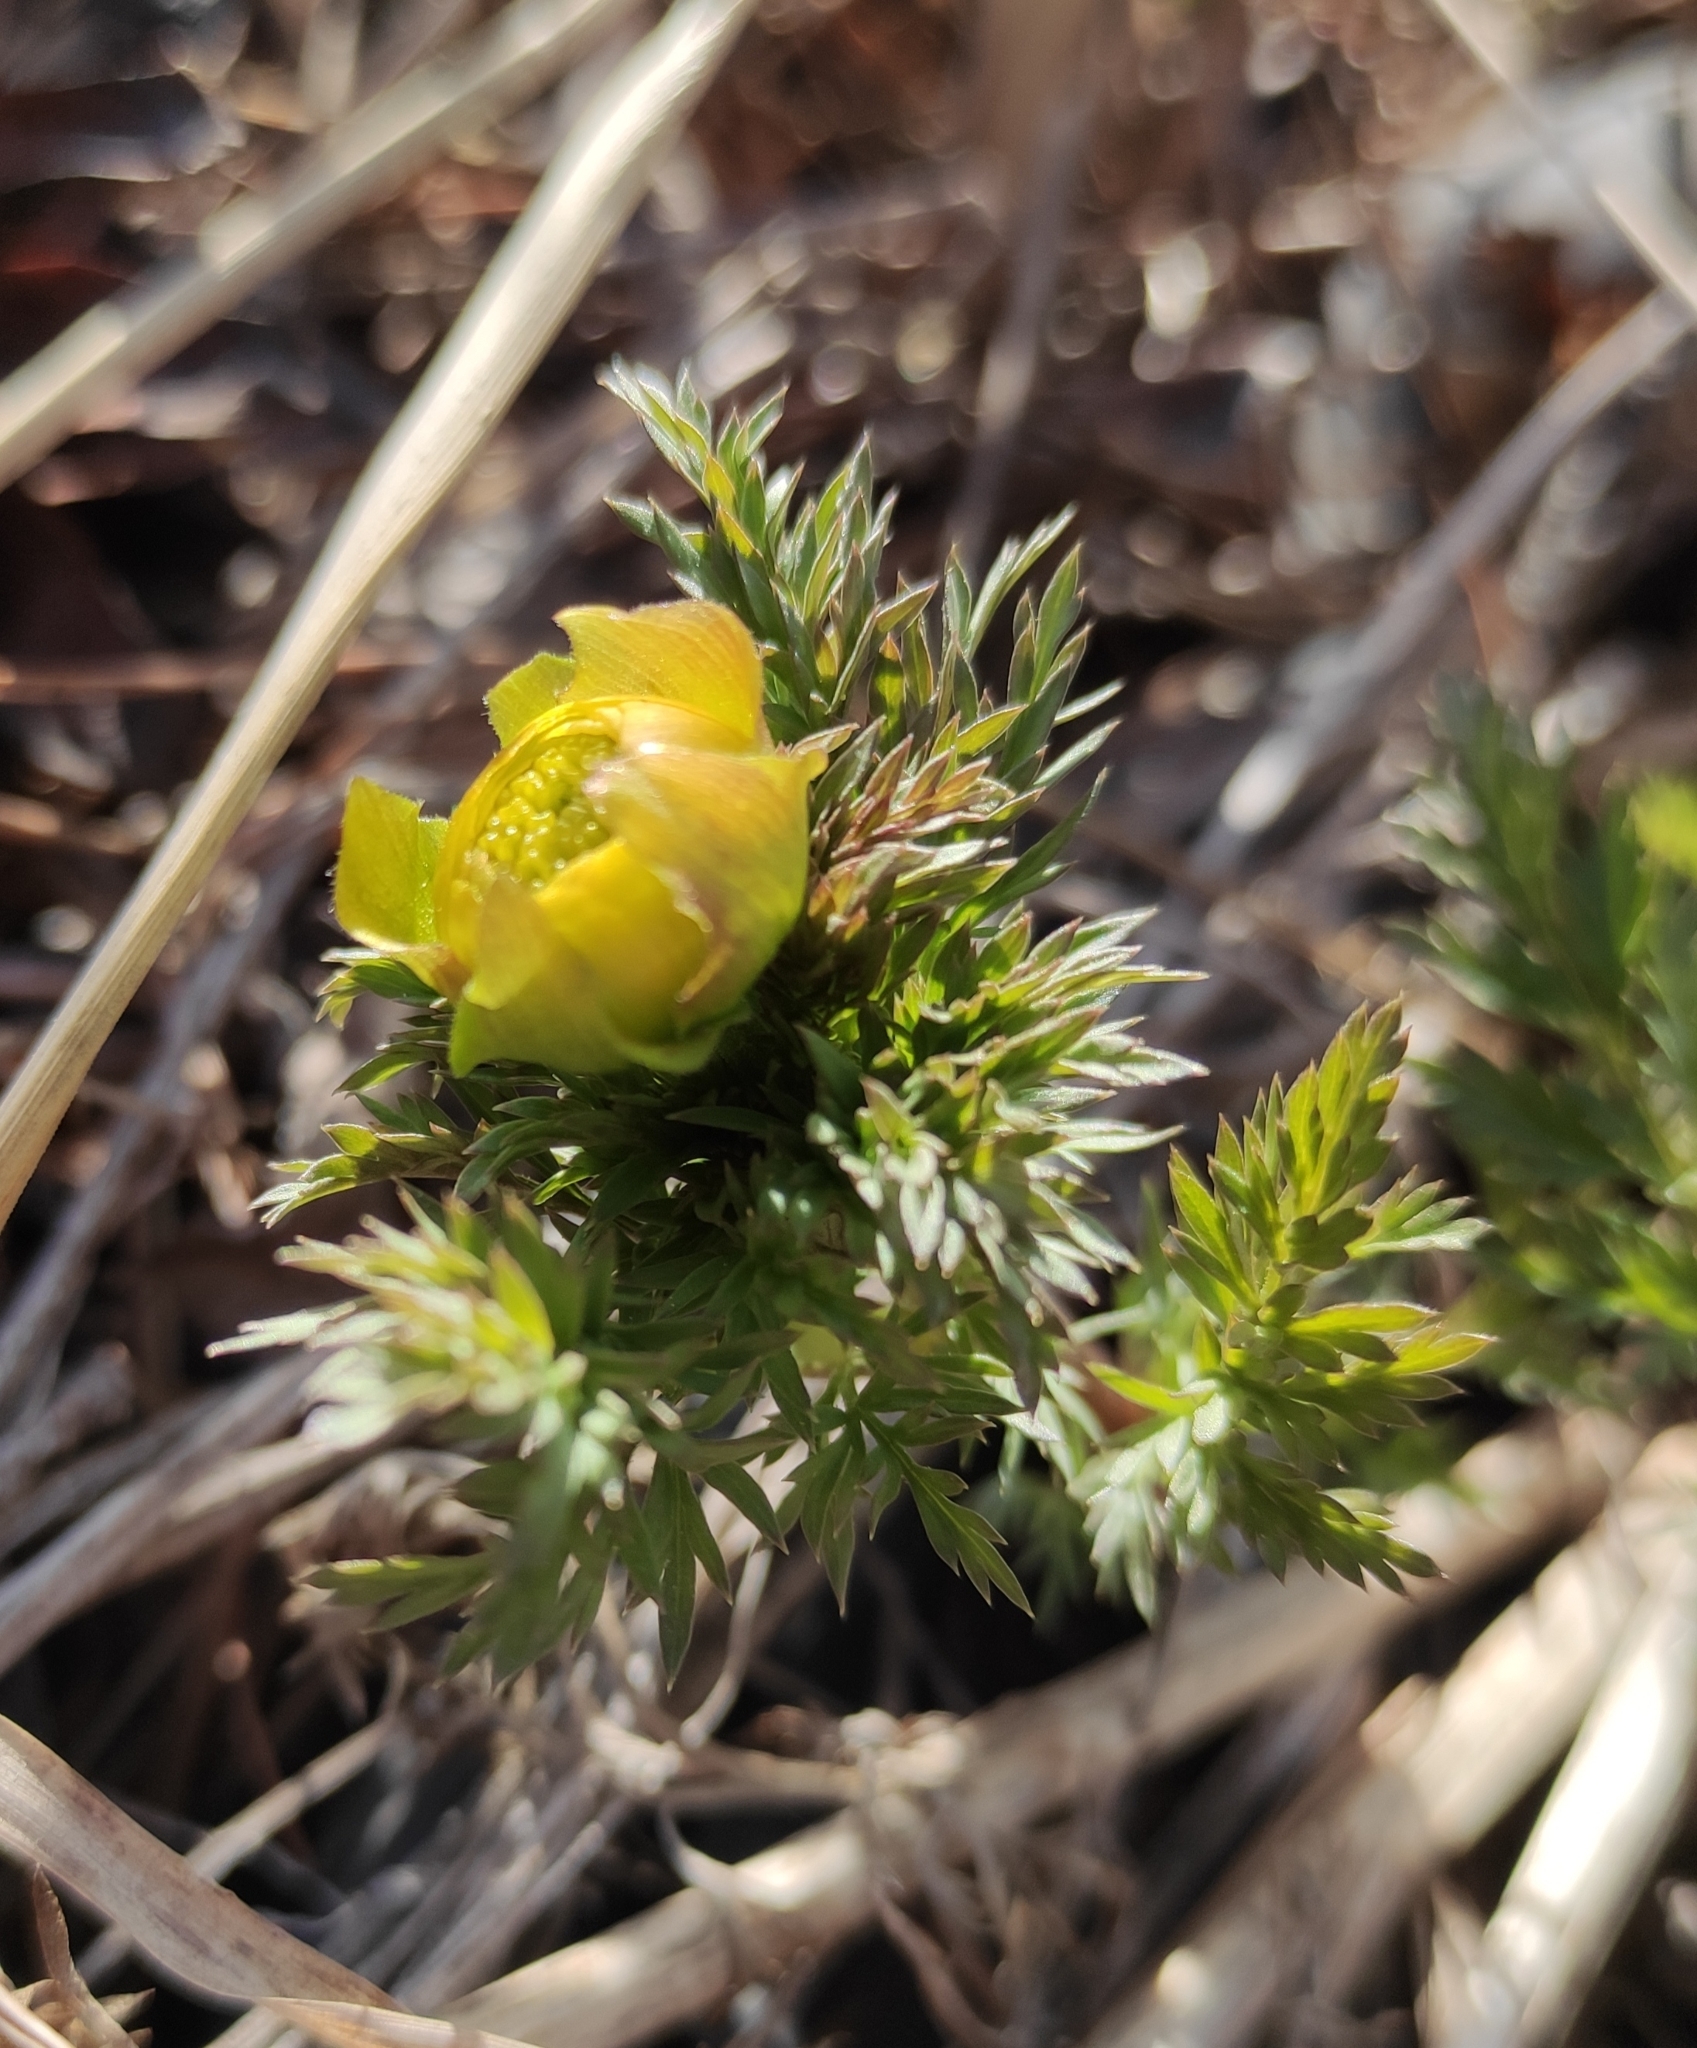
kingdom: Plantae
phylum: Tracheophyta
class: Magnoliopsida
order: Ranunculales
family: Ranunculaceae
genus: Adonis
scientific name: Adonis
